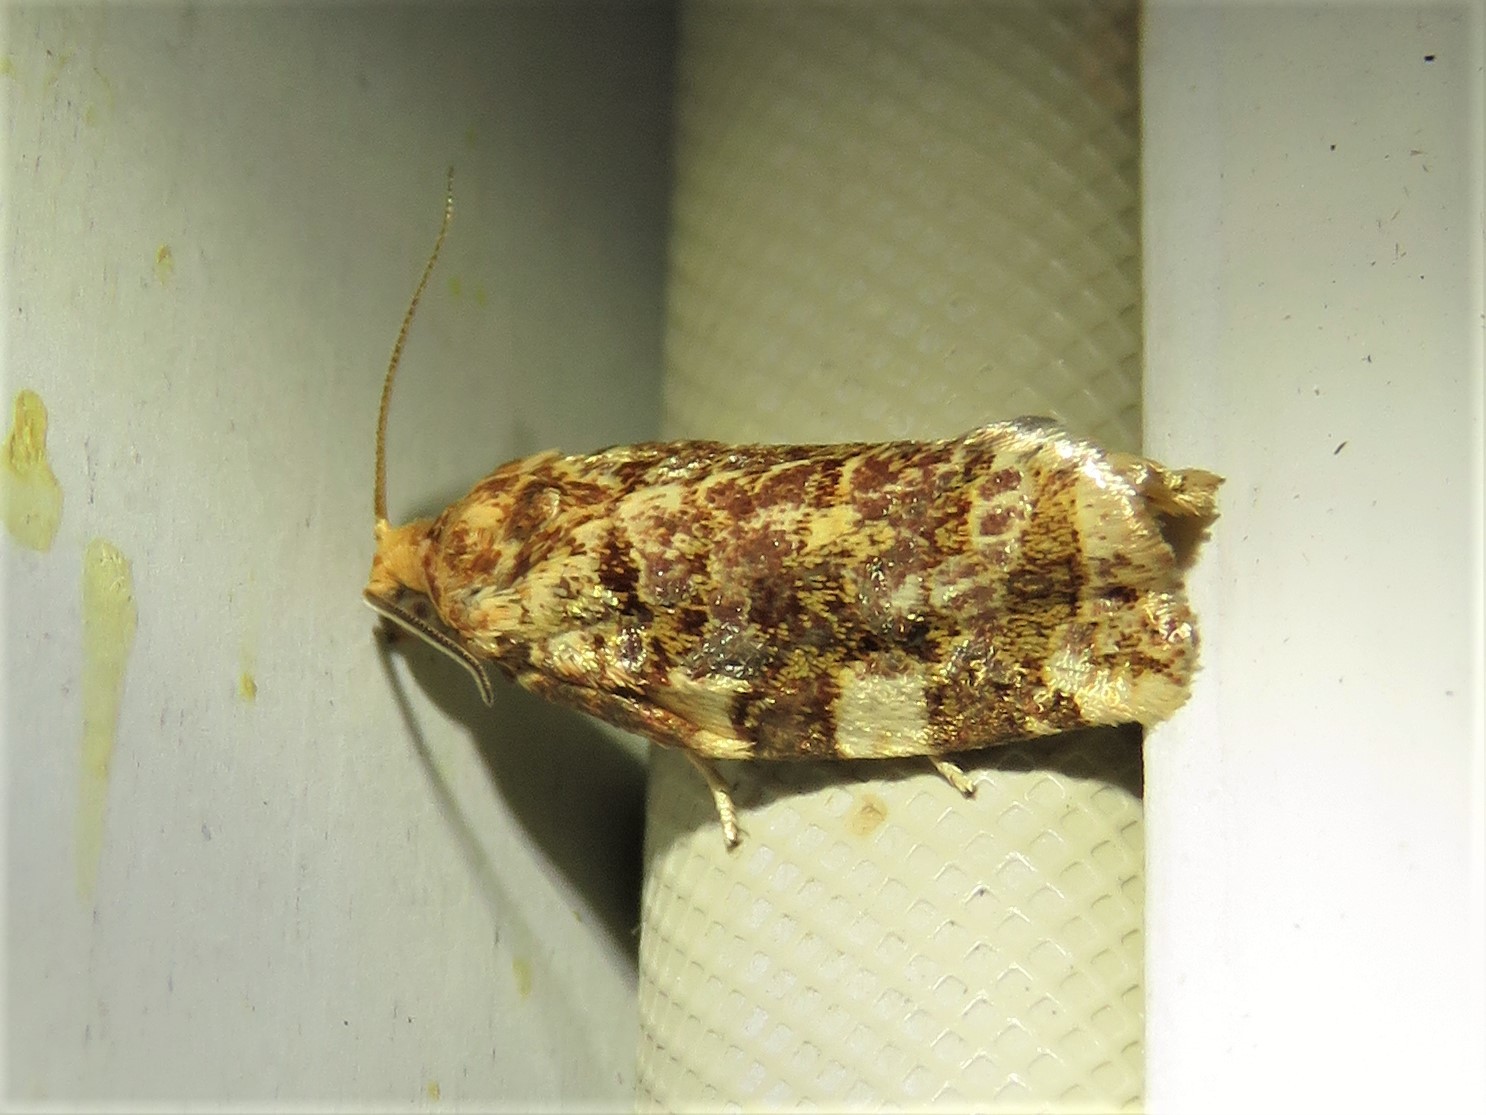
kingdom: Animalia
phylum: Arthropoda
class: Insecta
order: Lepidoptera
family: Tortricidae
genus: Archips
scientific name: Archips argyrospila
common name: Fruit-tree leafroller moth
